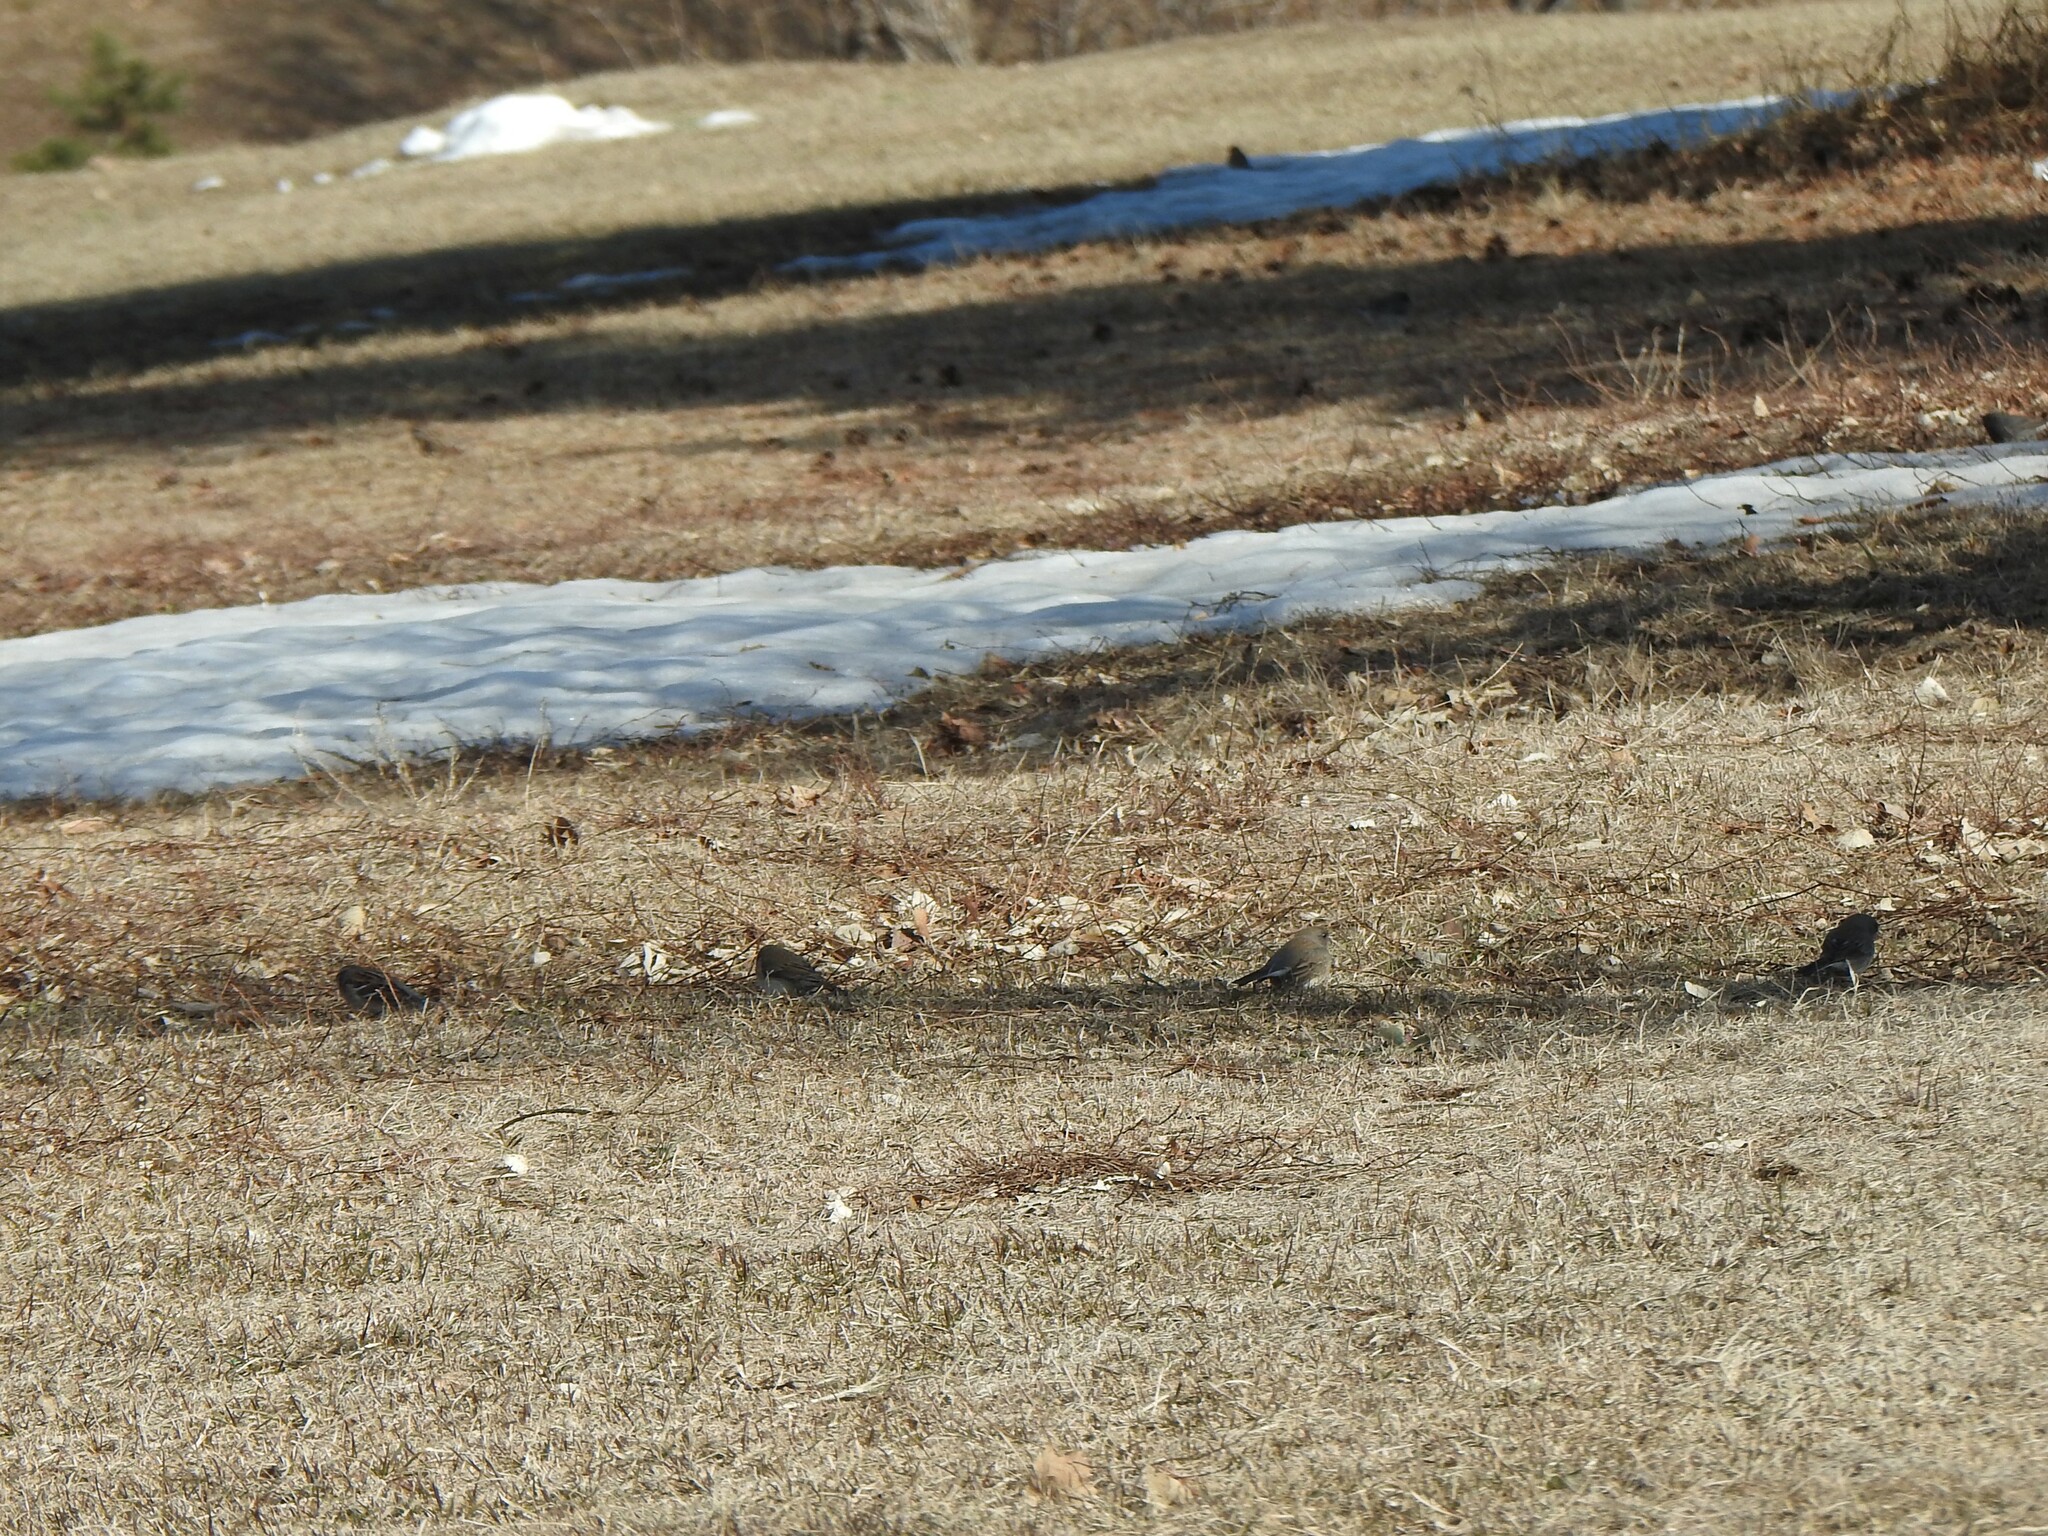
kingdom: Animalia
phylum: Chordata
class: Aves
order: Passeriformes
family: Passerellidae
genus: Junco
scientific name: Junco hyemalis
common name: Dark-eyed junco
